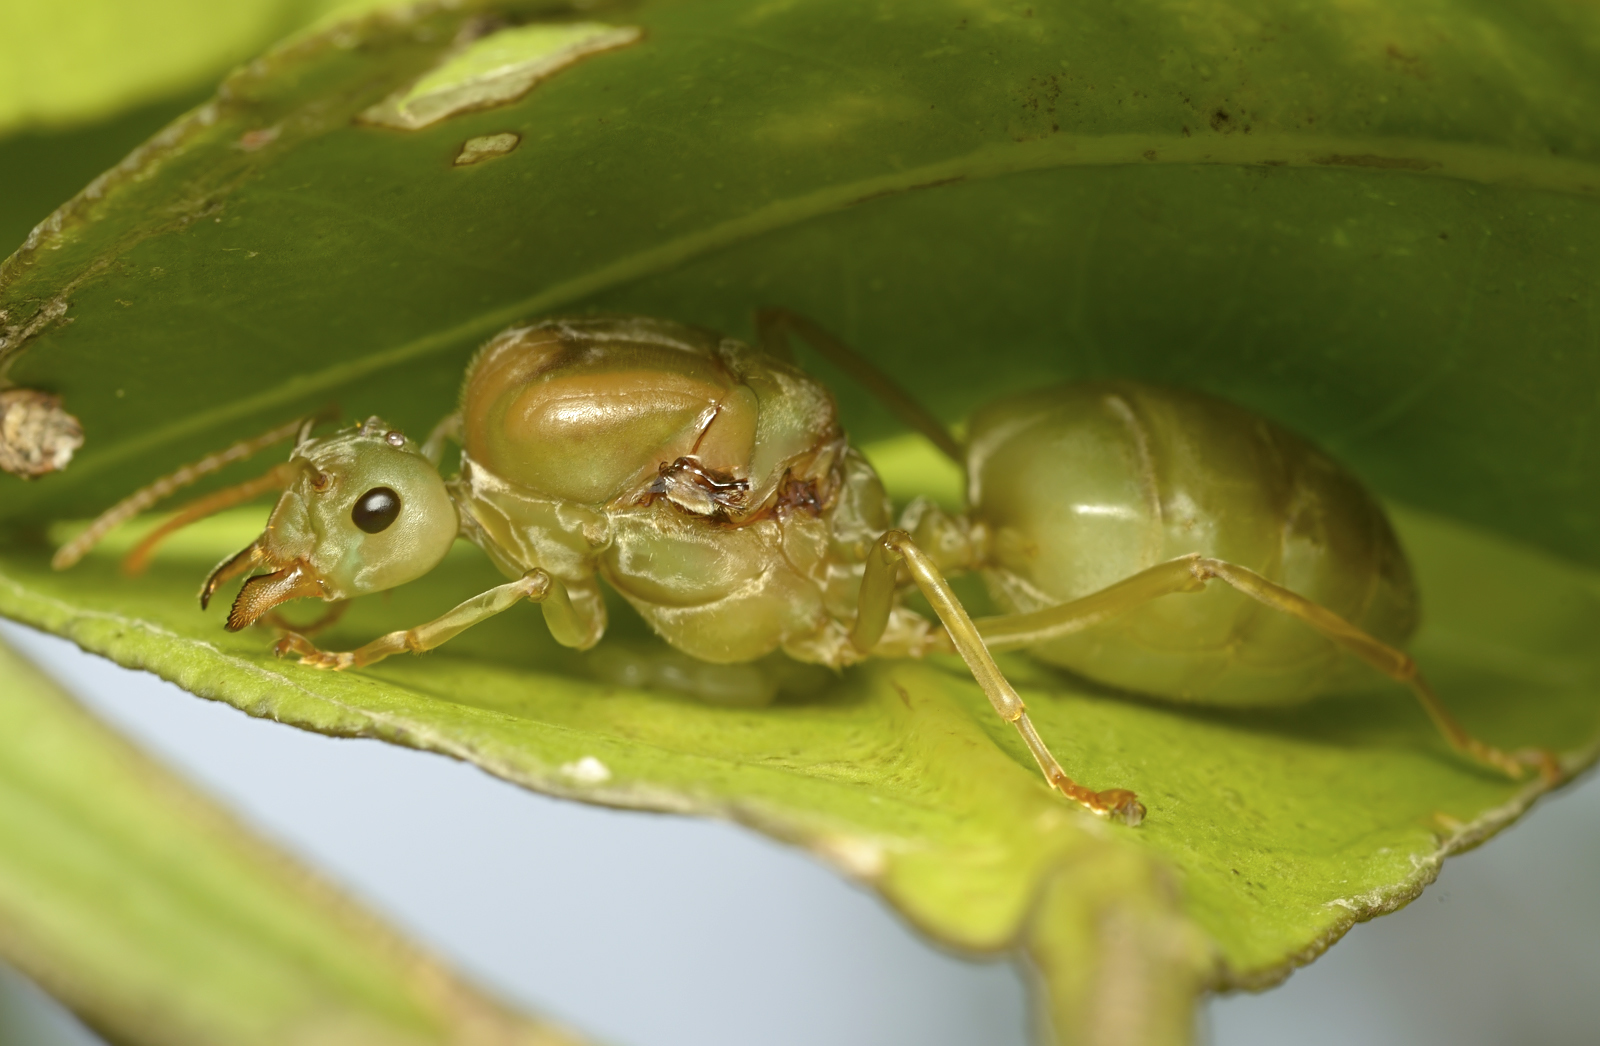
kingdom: Animalia
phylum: Arthropoda
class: Insecta
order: Hymenoptera
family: Formicidae
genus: Oecophylla
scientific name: Oecophylla smaragdina
